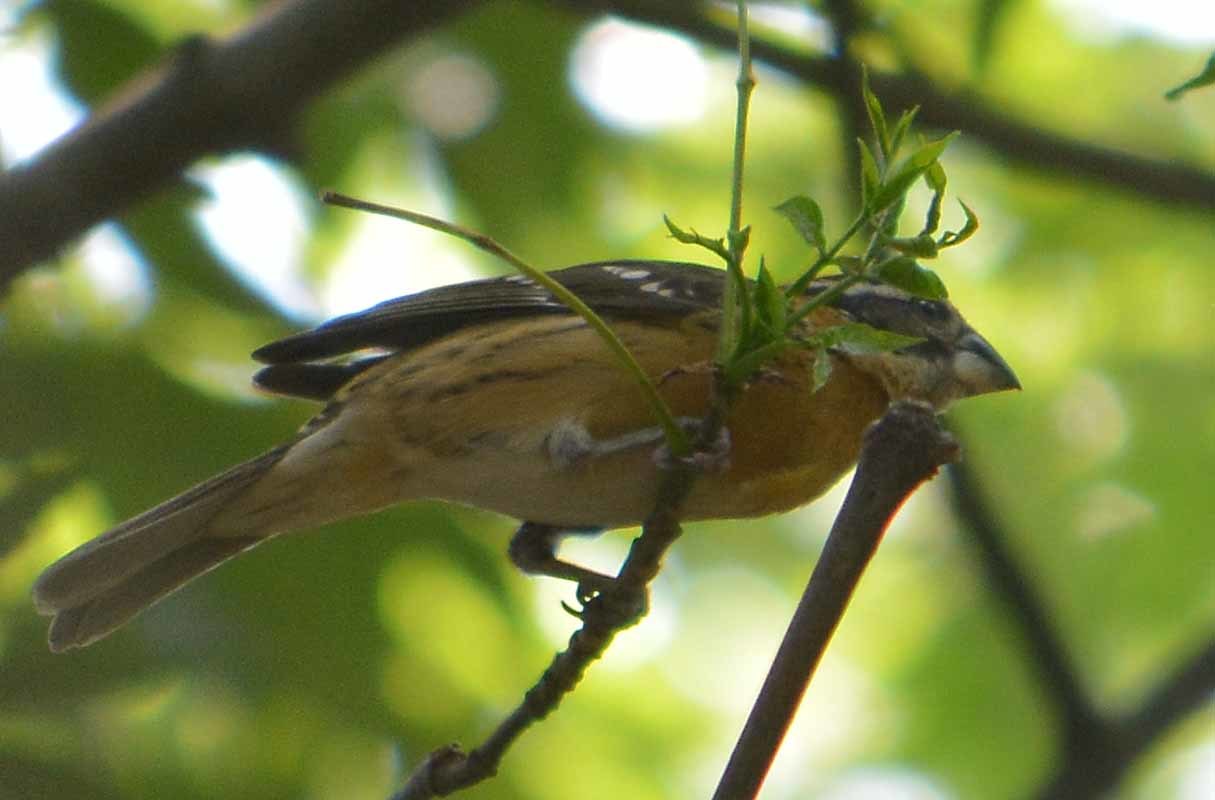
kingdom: Animalia
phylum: Chordata
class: Aves
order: Passeriformes
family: Cardinalidae
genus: Pheucticus
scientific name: Pheucticus melanocephalus
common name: Black-headed grosbeak
